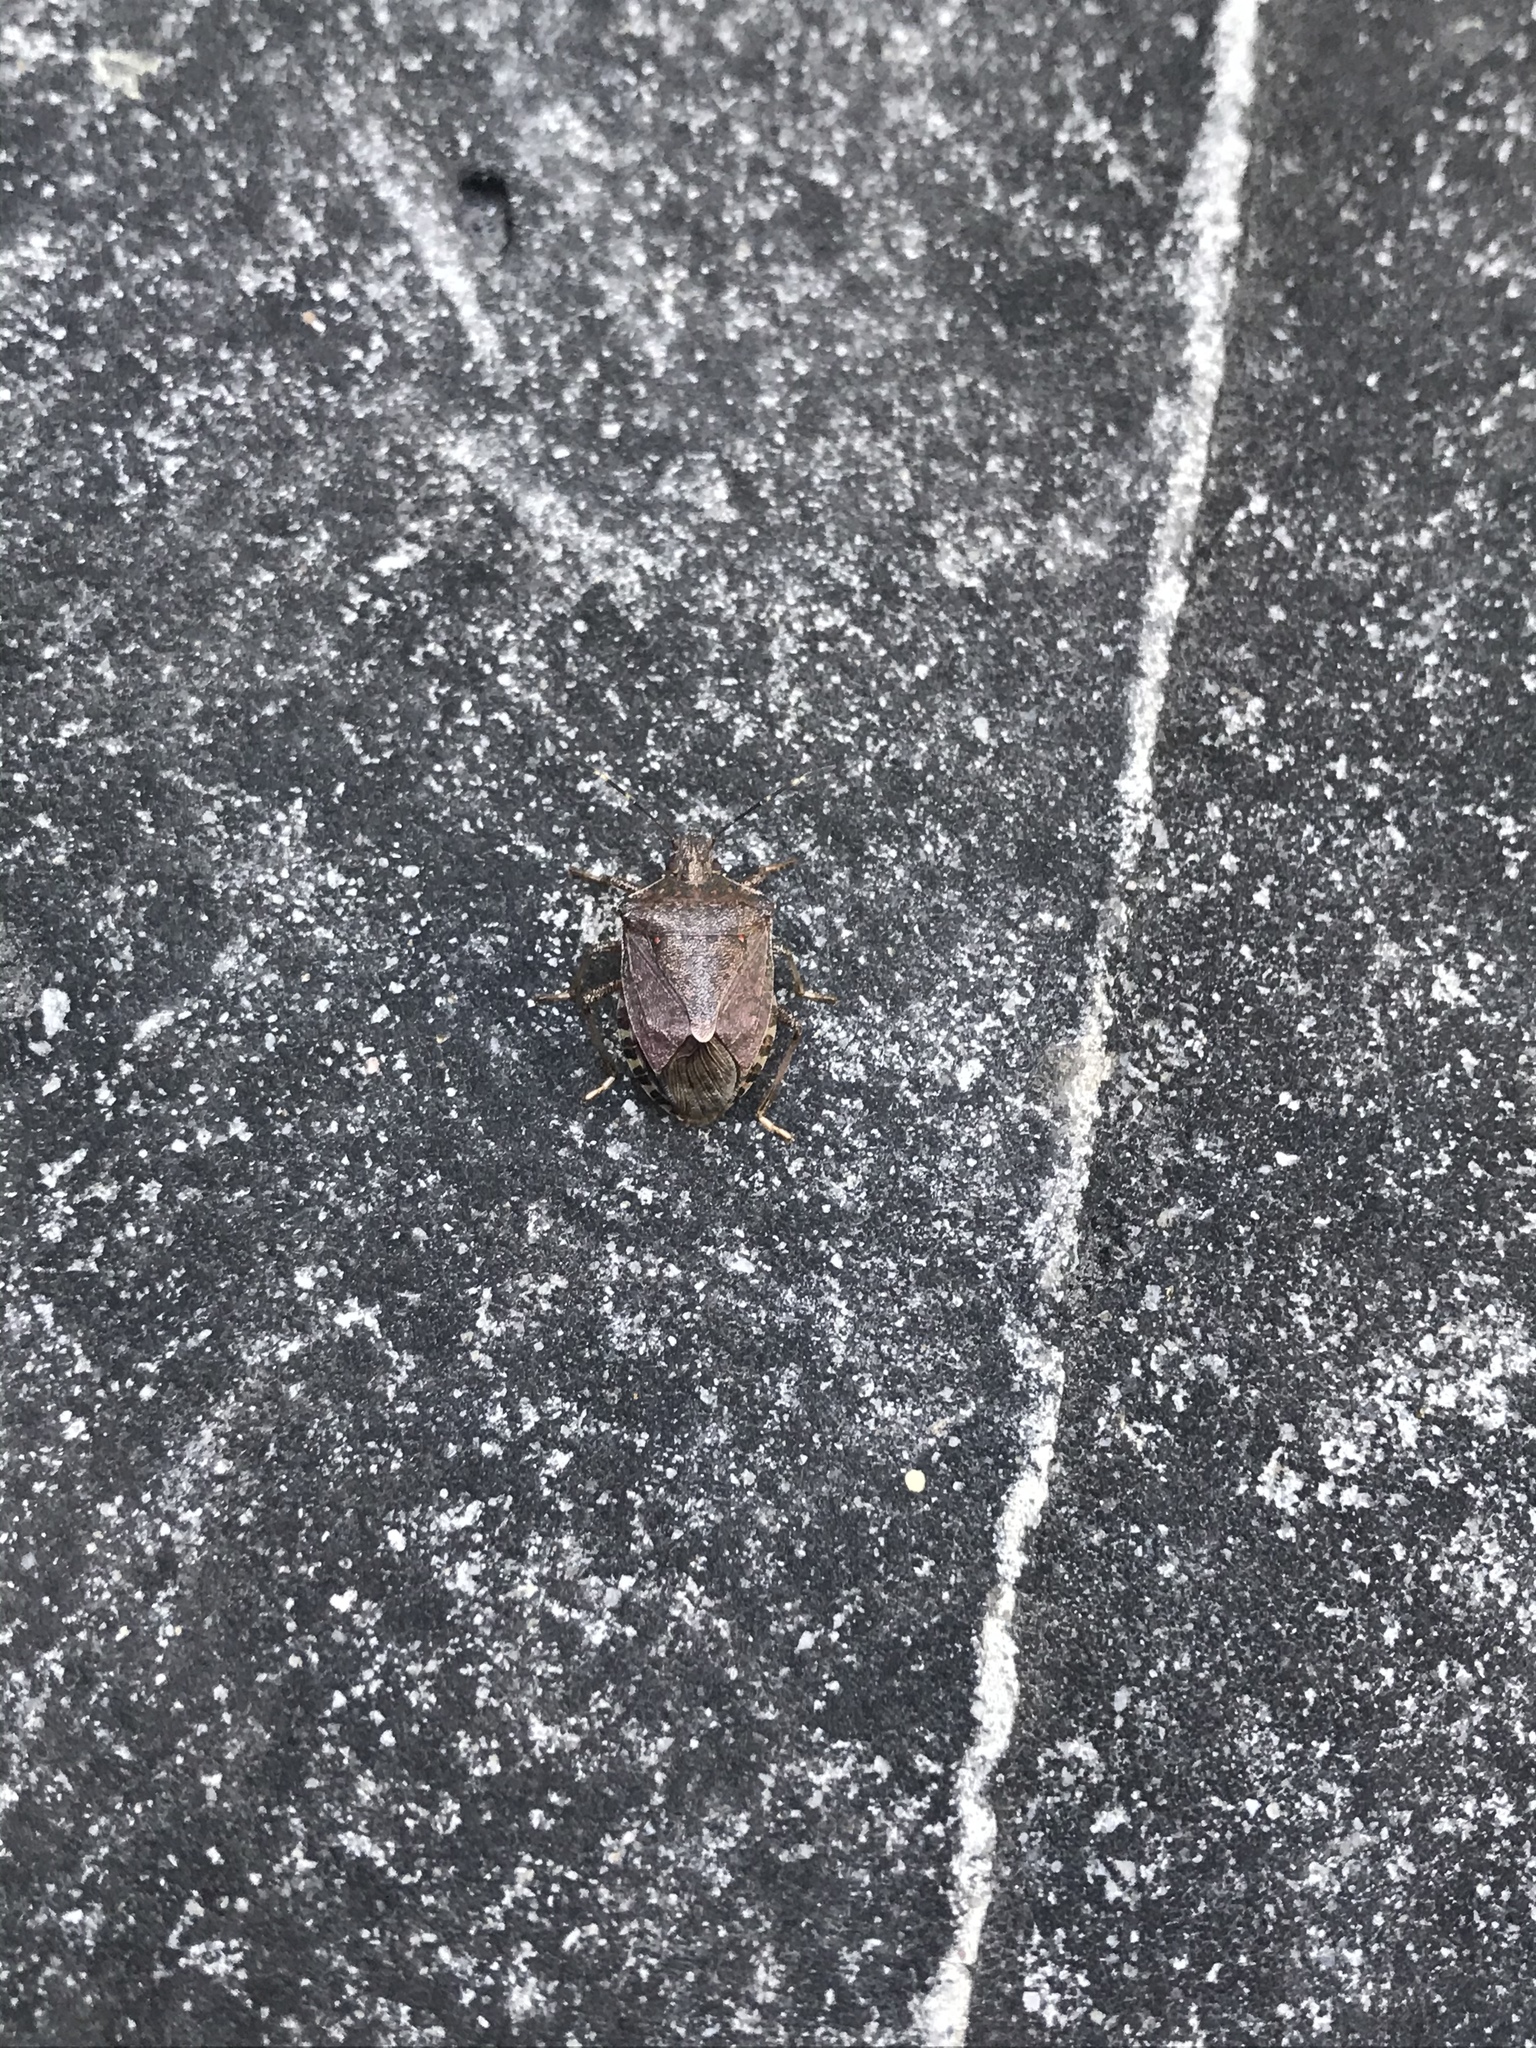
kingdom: Animalia
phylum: Arthropoda
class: Insecta
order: Hemiptera
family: Pentatomidae
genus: Halyomorpha
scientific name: Halyomorpha halys
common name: Brown marmorated stink bug
